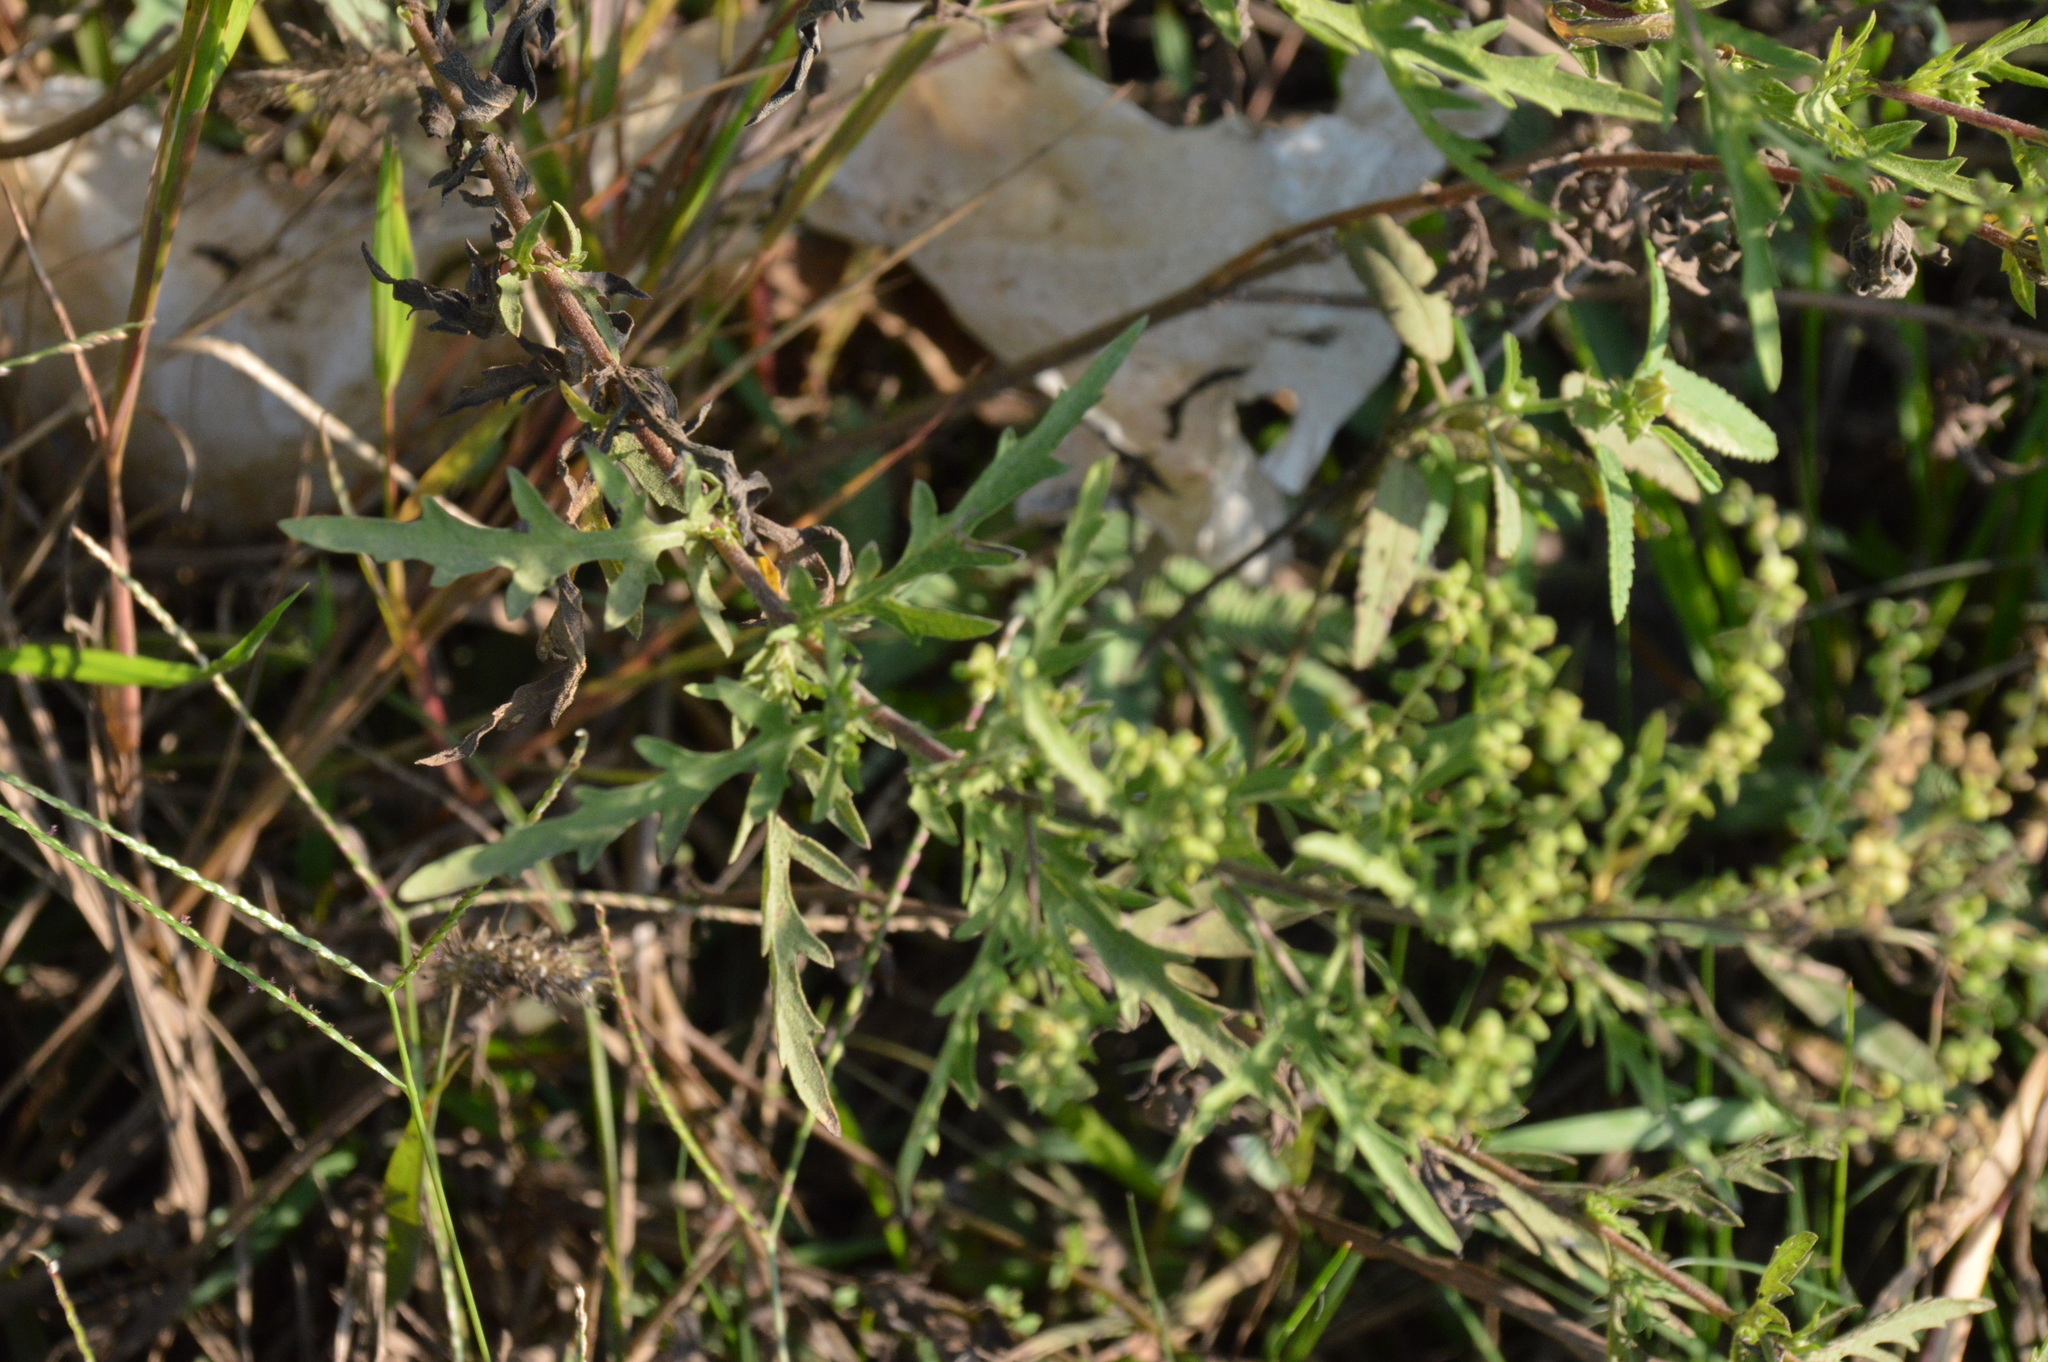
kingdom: Plantae
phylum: Tracheophyta
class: Magnoliopsida
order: Asterales
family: Asteraceae
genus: Ambrosia
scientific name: Ambrosia psilostachya
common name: Perennial ragweed
